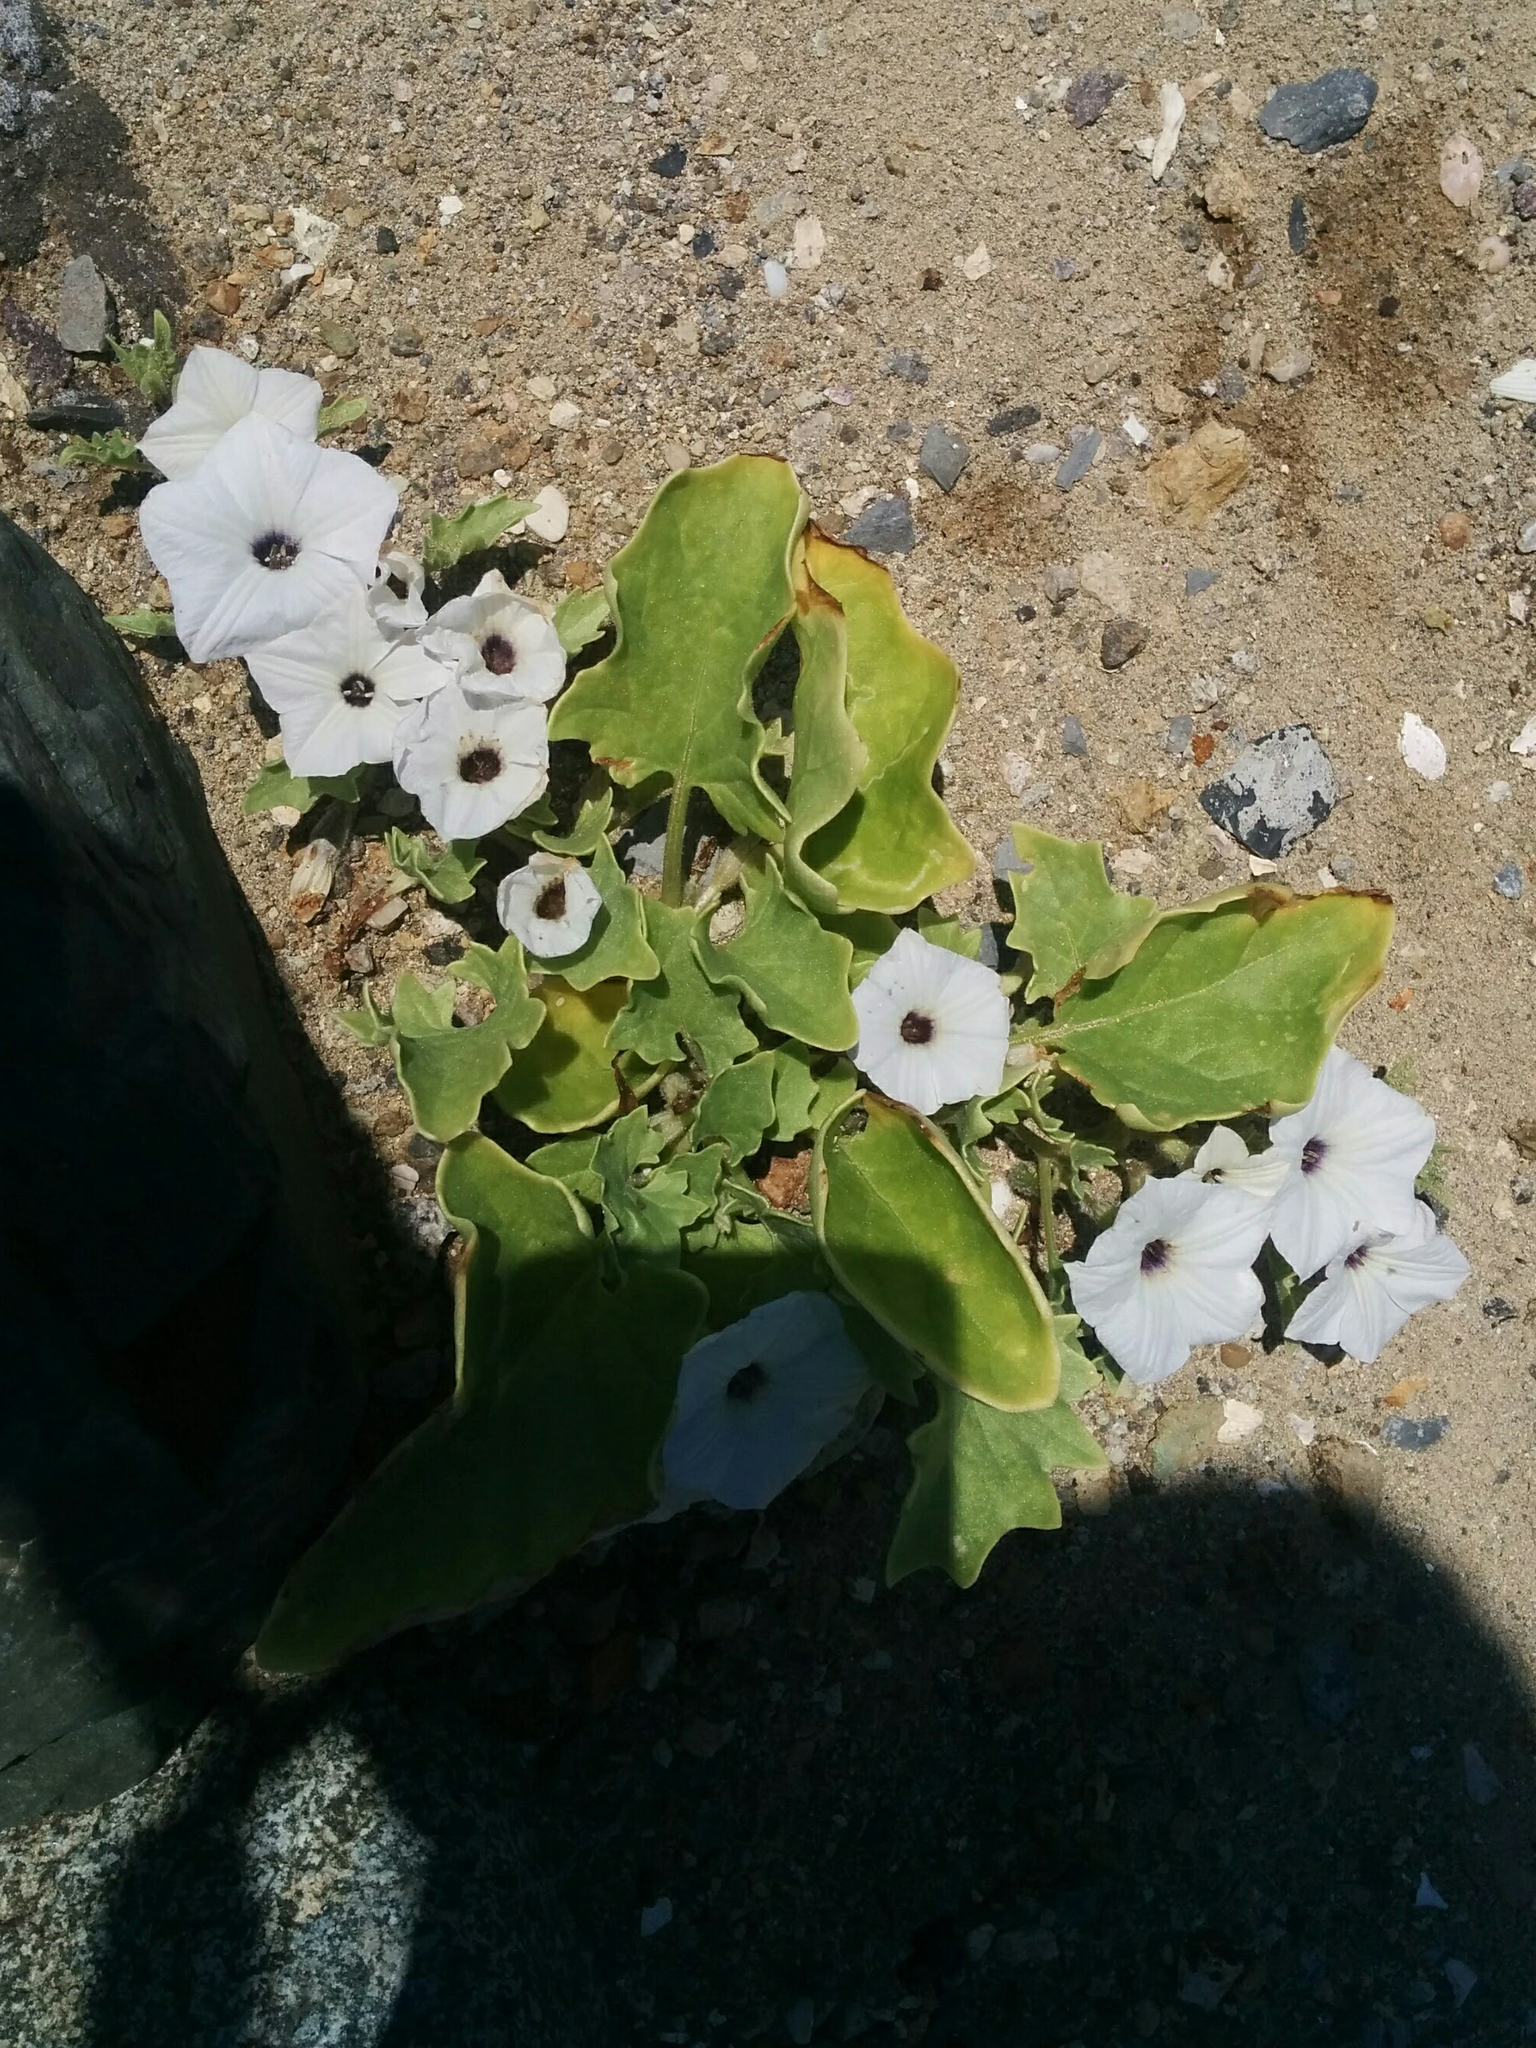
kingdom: Plantae
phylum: Tracheophyta
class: Magnoliopsida
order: Solanales
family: Solanaceae
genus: Exodeconus
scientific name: Exodeconus maritima
